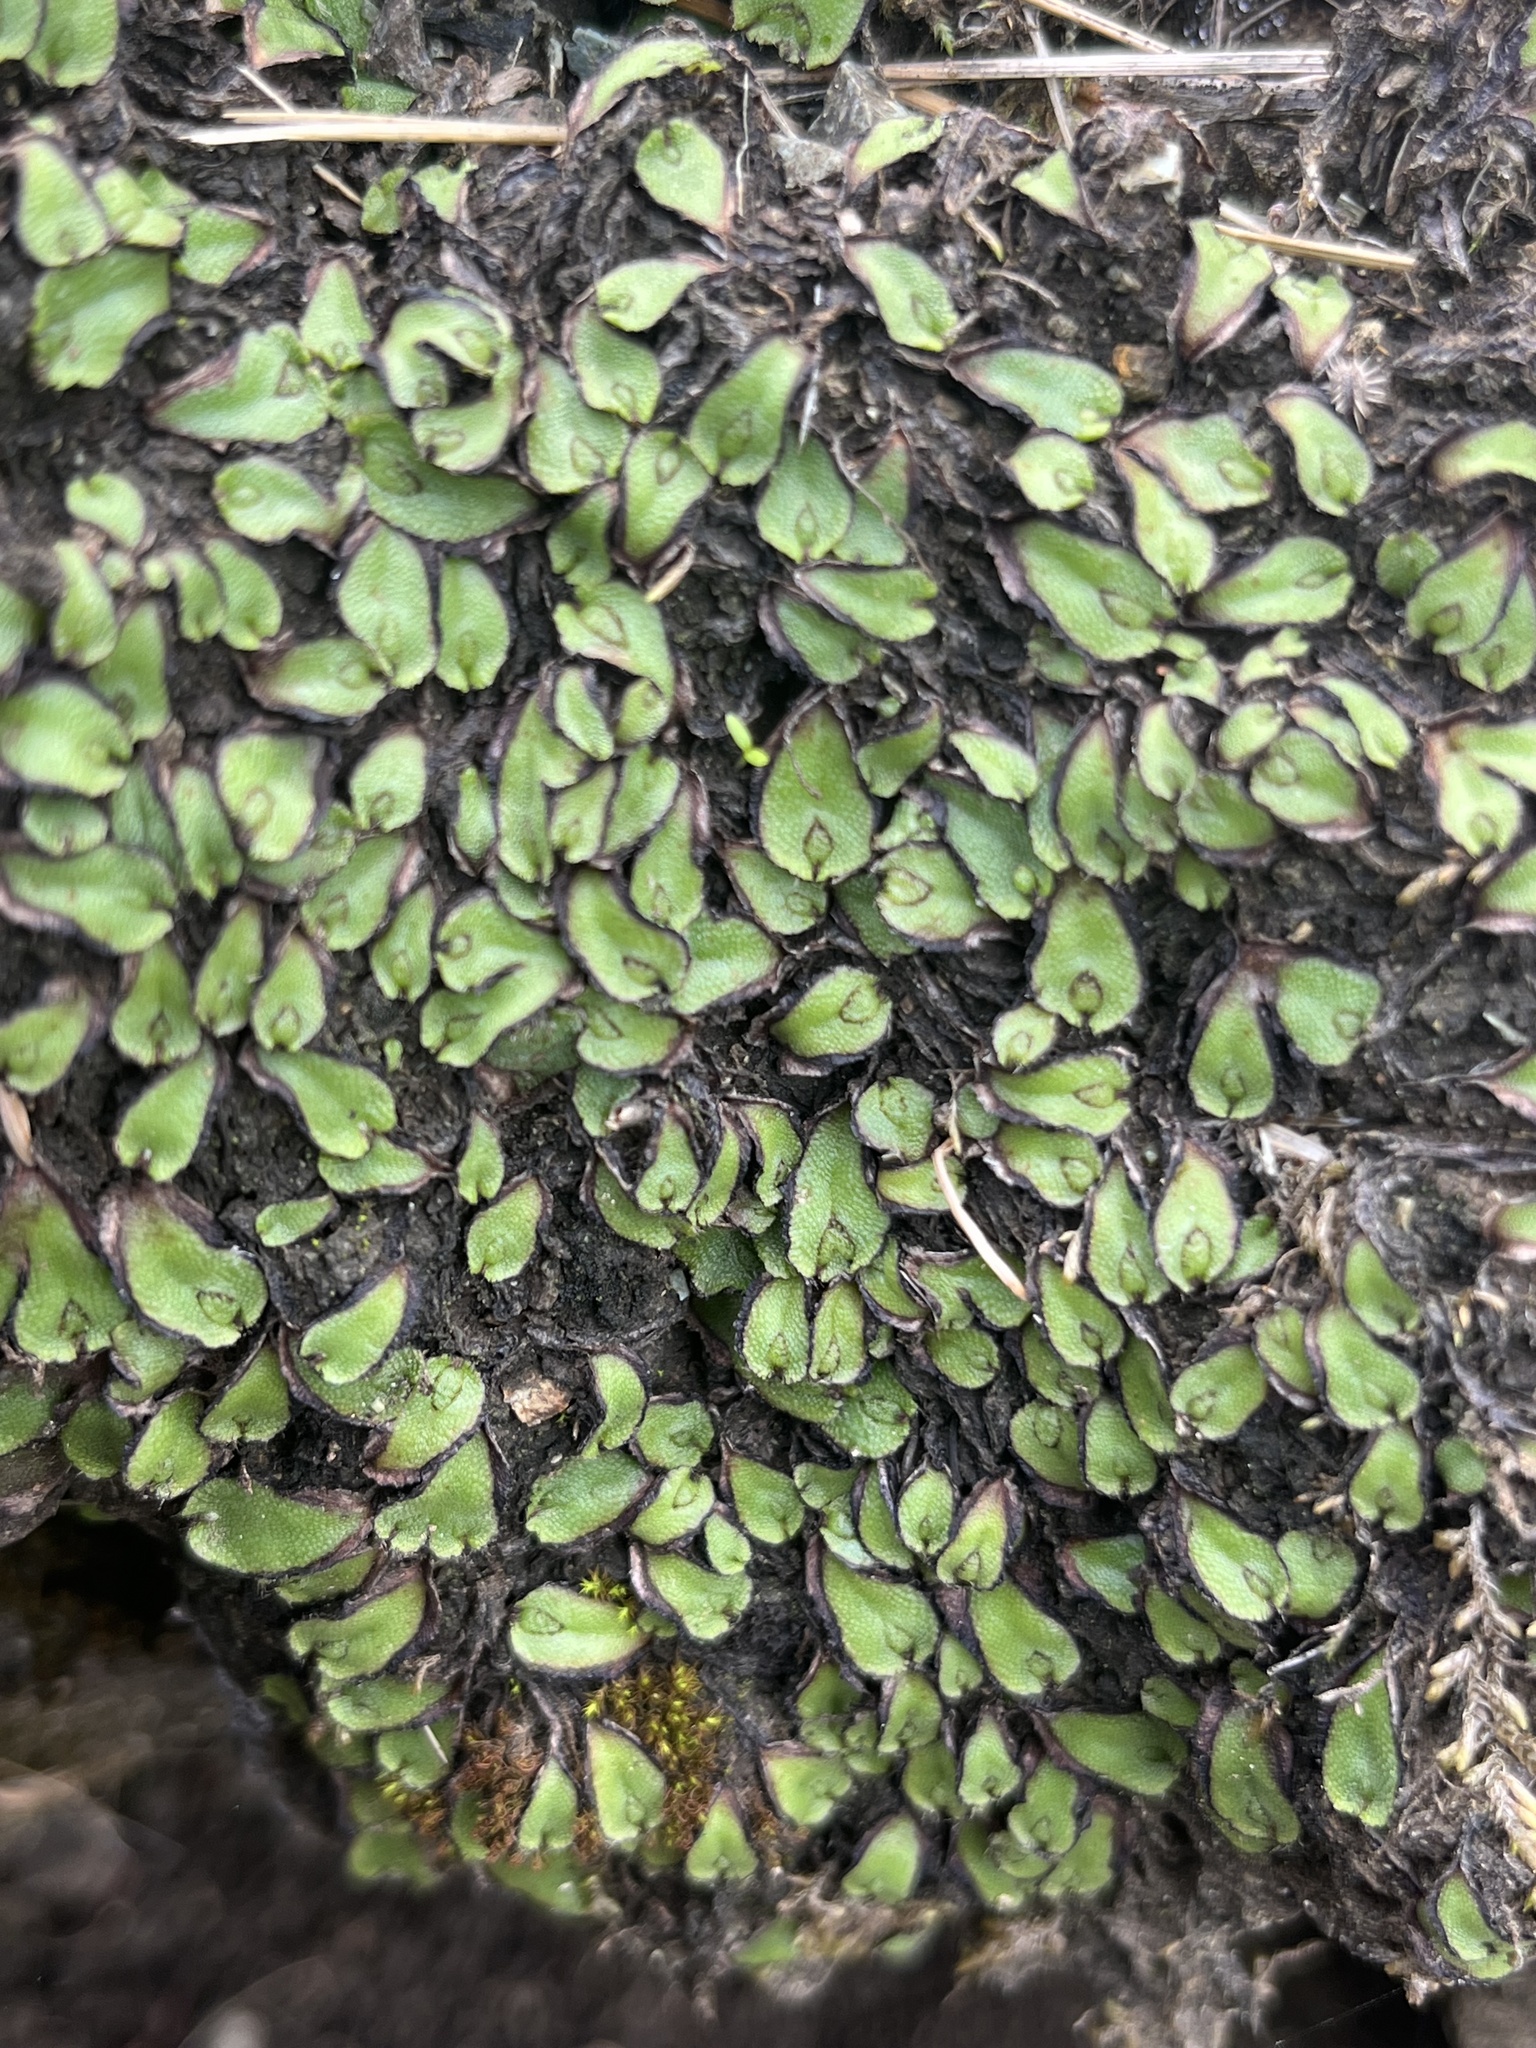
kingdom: Plantae
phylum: Marchantiophyta
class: Marchantiopsida
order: Marchantiales
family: Aytoniaceae
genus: Asterella
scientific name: Asterella californica
